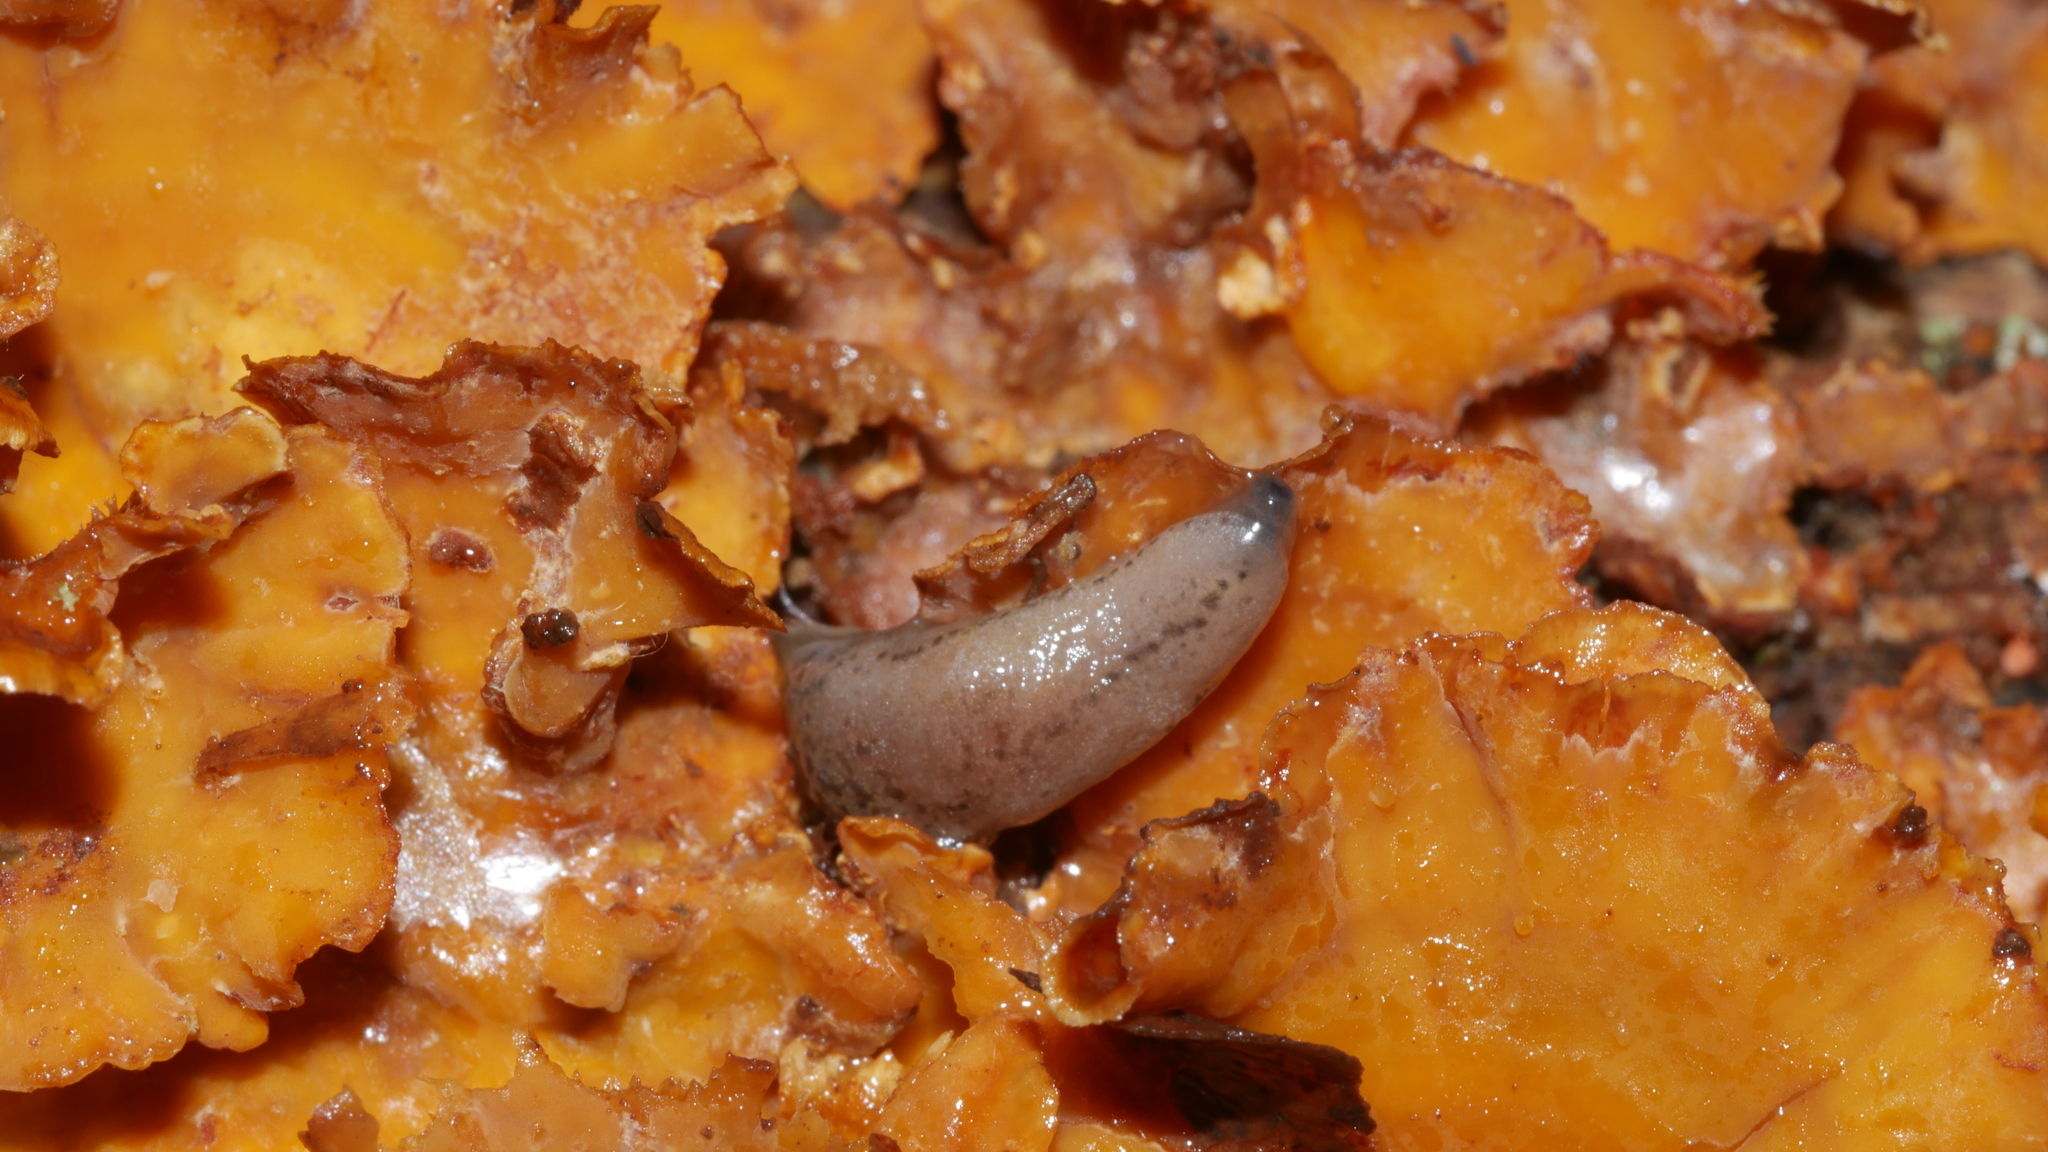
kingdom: Animalia
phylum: Mollusca
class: Gastropoda
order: Stylommatophora
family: Philomycidae
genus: Pallifera
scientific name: Pallifera fosteri
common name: Foster mantleslug
